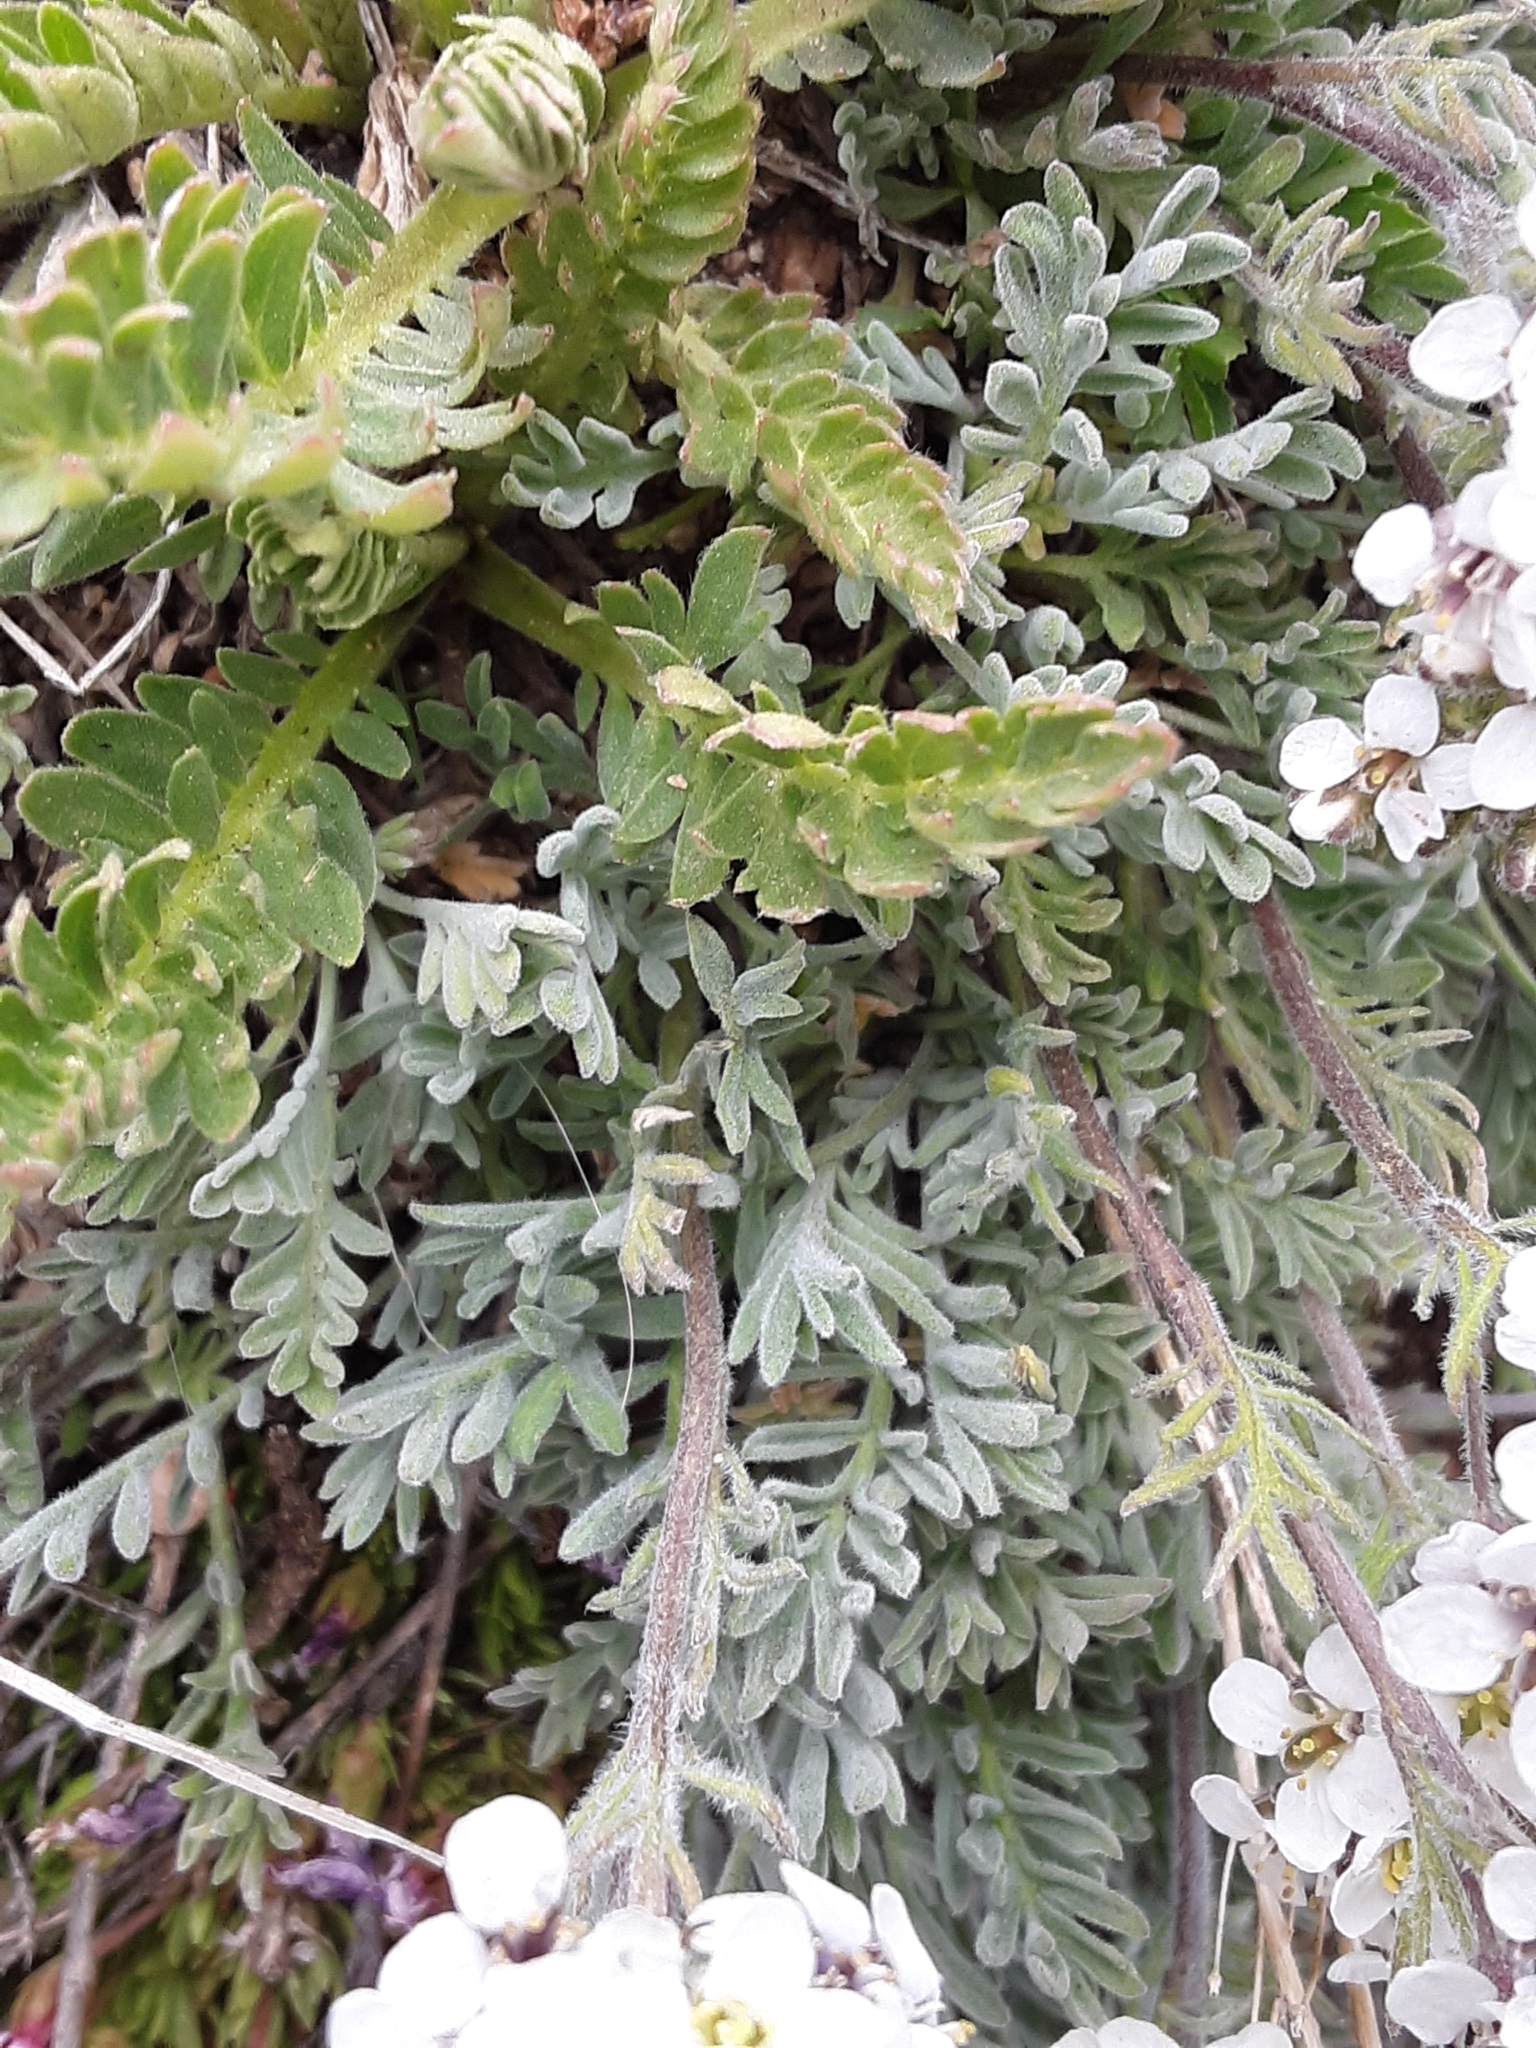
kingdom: Plantae
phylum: Tracheophyta
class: Magnoliopsida
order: Brassicales
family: Brassicaceae
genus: Smelowskia
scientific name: Smelowskia americana
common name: American false candytuft
